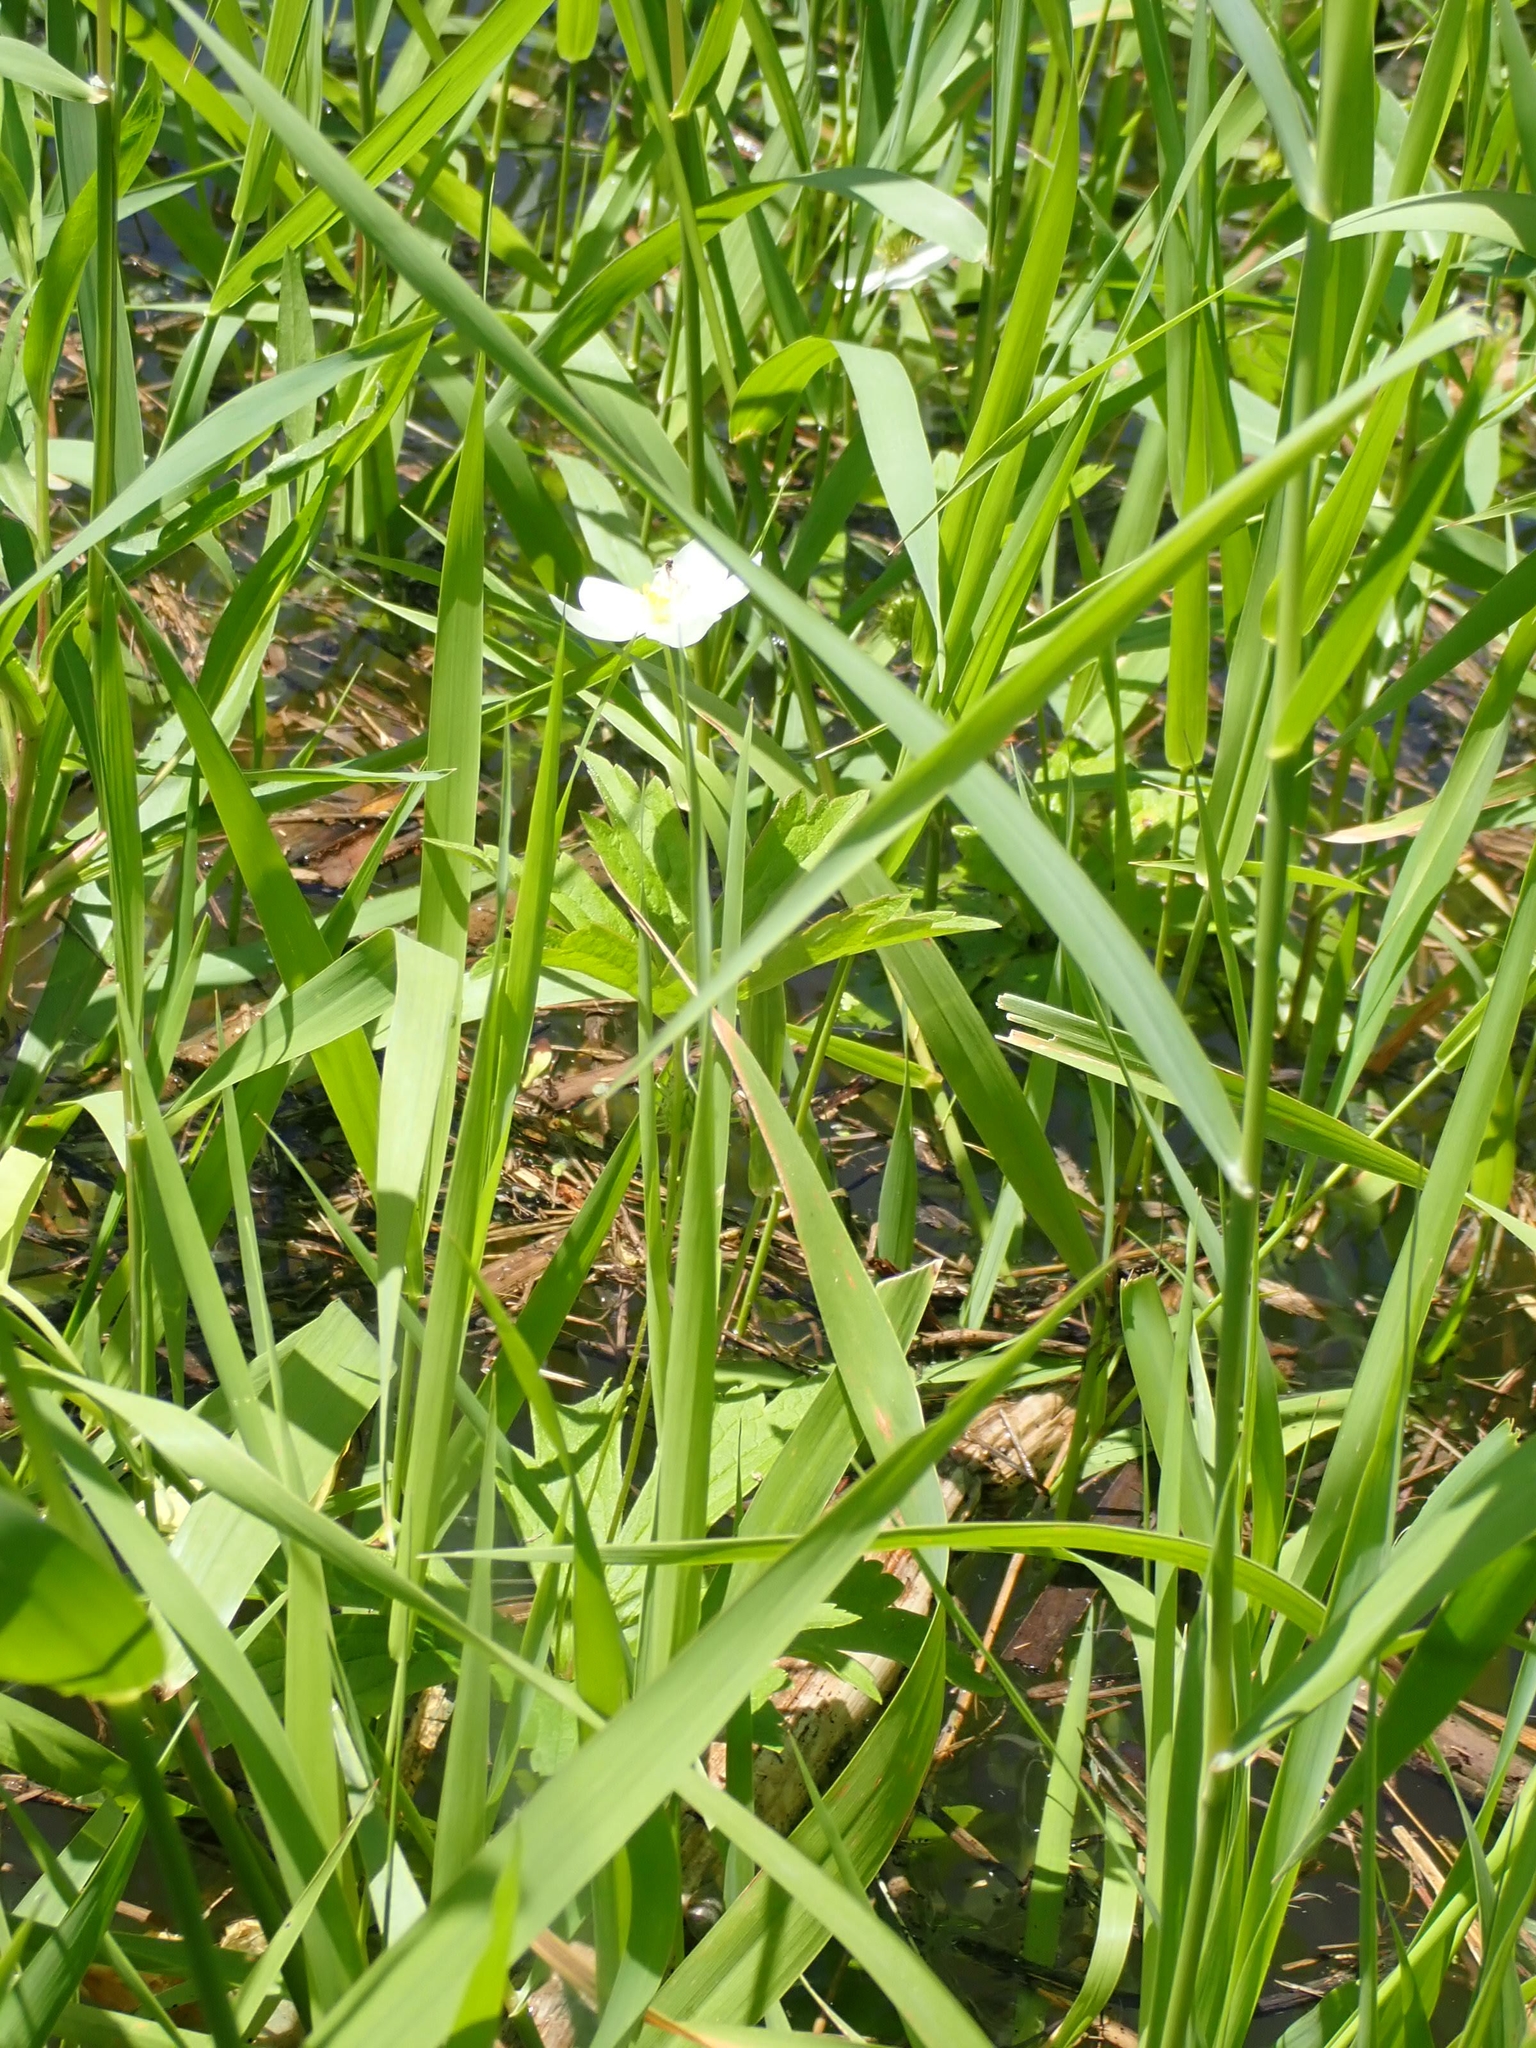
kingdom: Plantae
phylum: Tracheophyta
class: Magnoliopsida
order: Ranunculales
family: Ranunculaceae
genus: Anemonastrum
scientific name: Anemonastrum canadense
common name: Canada anemone
